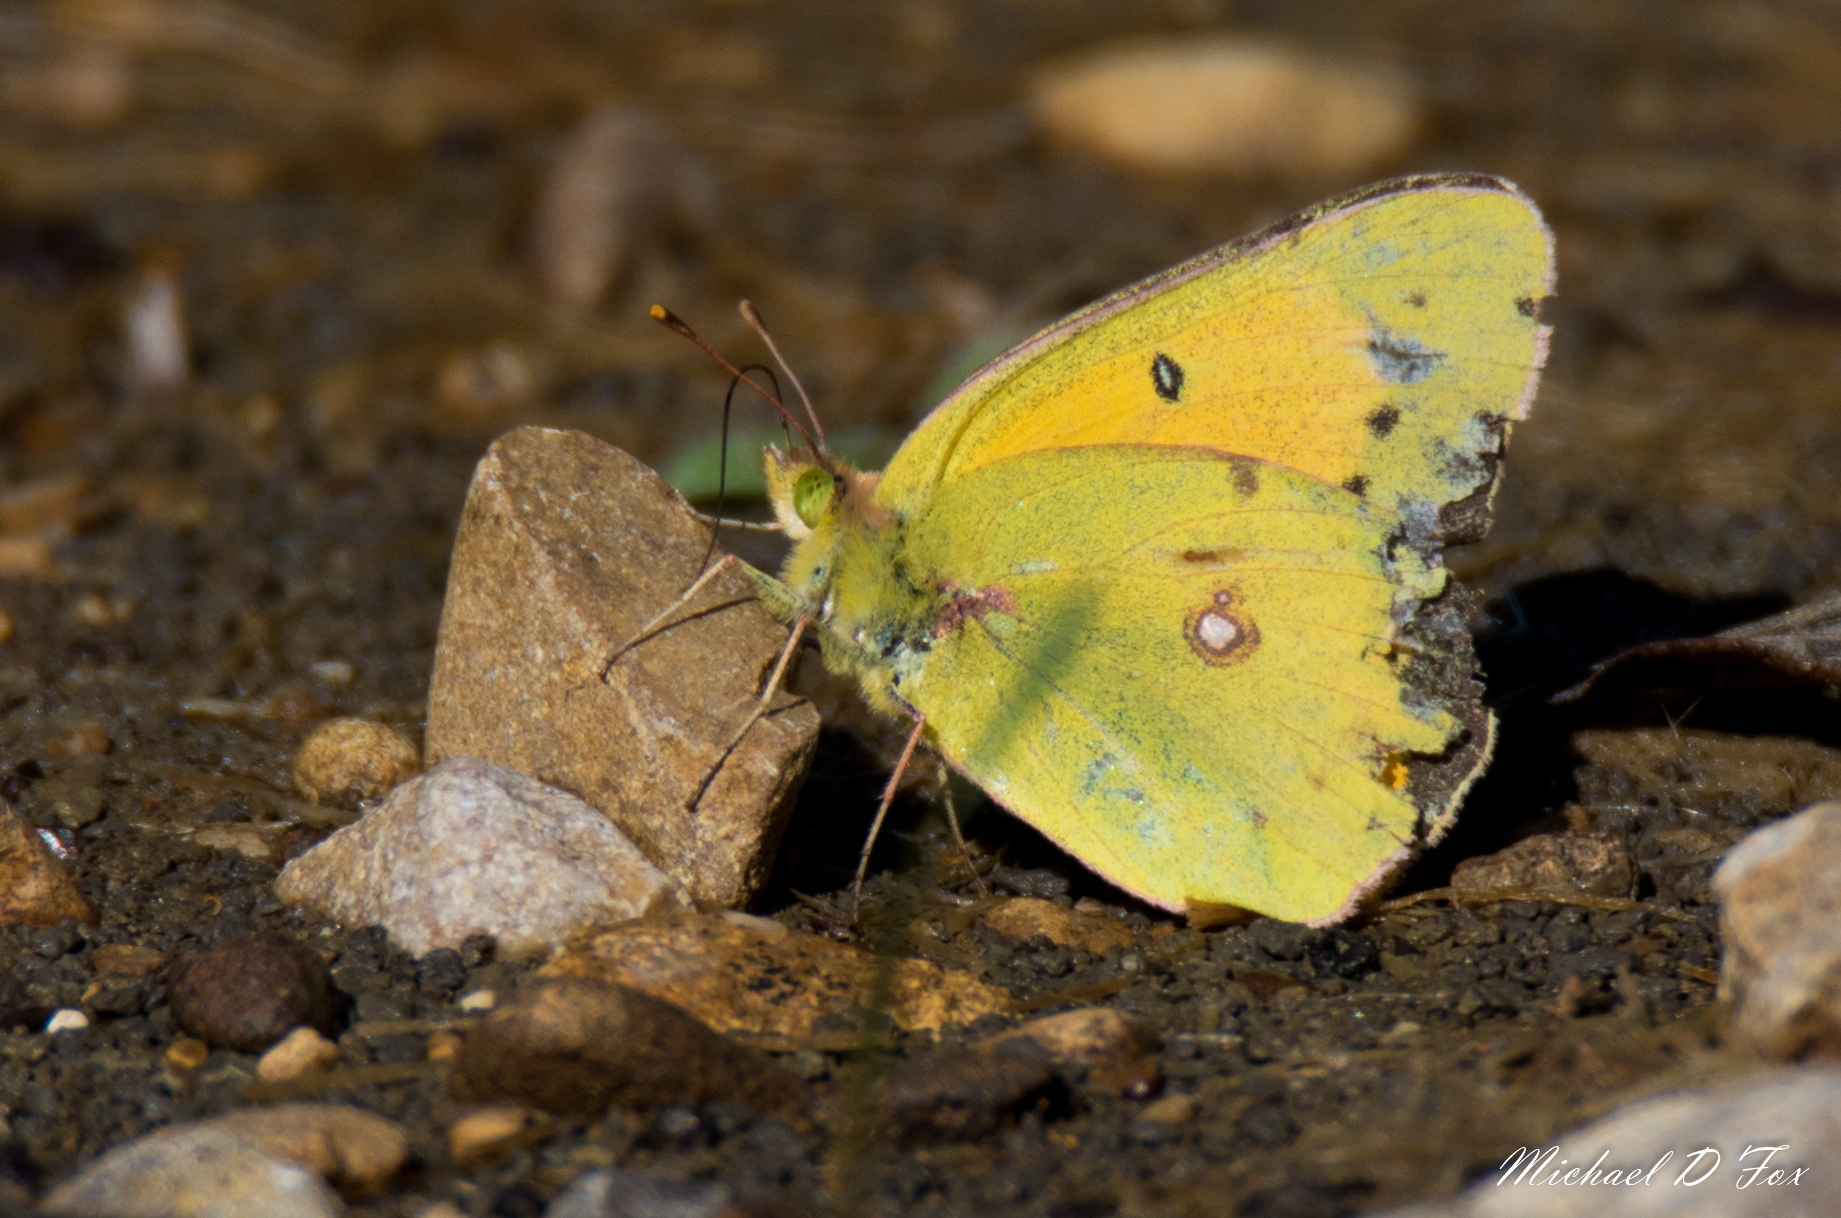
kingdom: Animalia
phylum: Arthropoda
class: Insecta
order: Lepidoptera
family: Pieridae
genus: Colias
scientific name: Colias eurytheme
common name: Alfalfa butterfly
